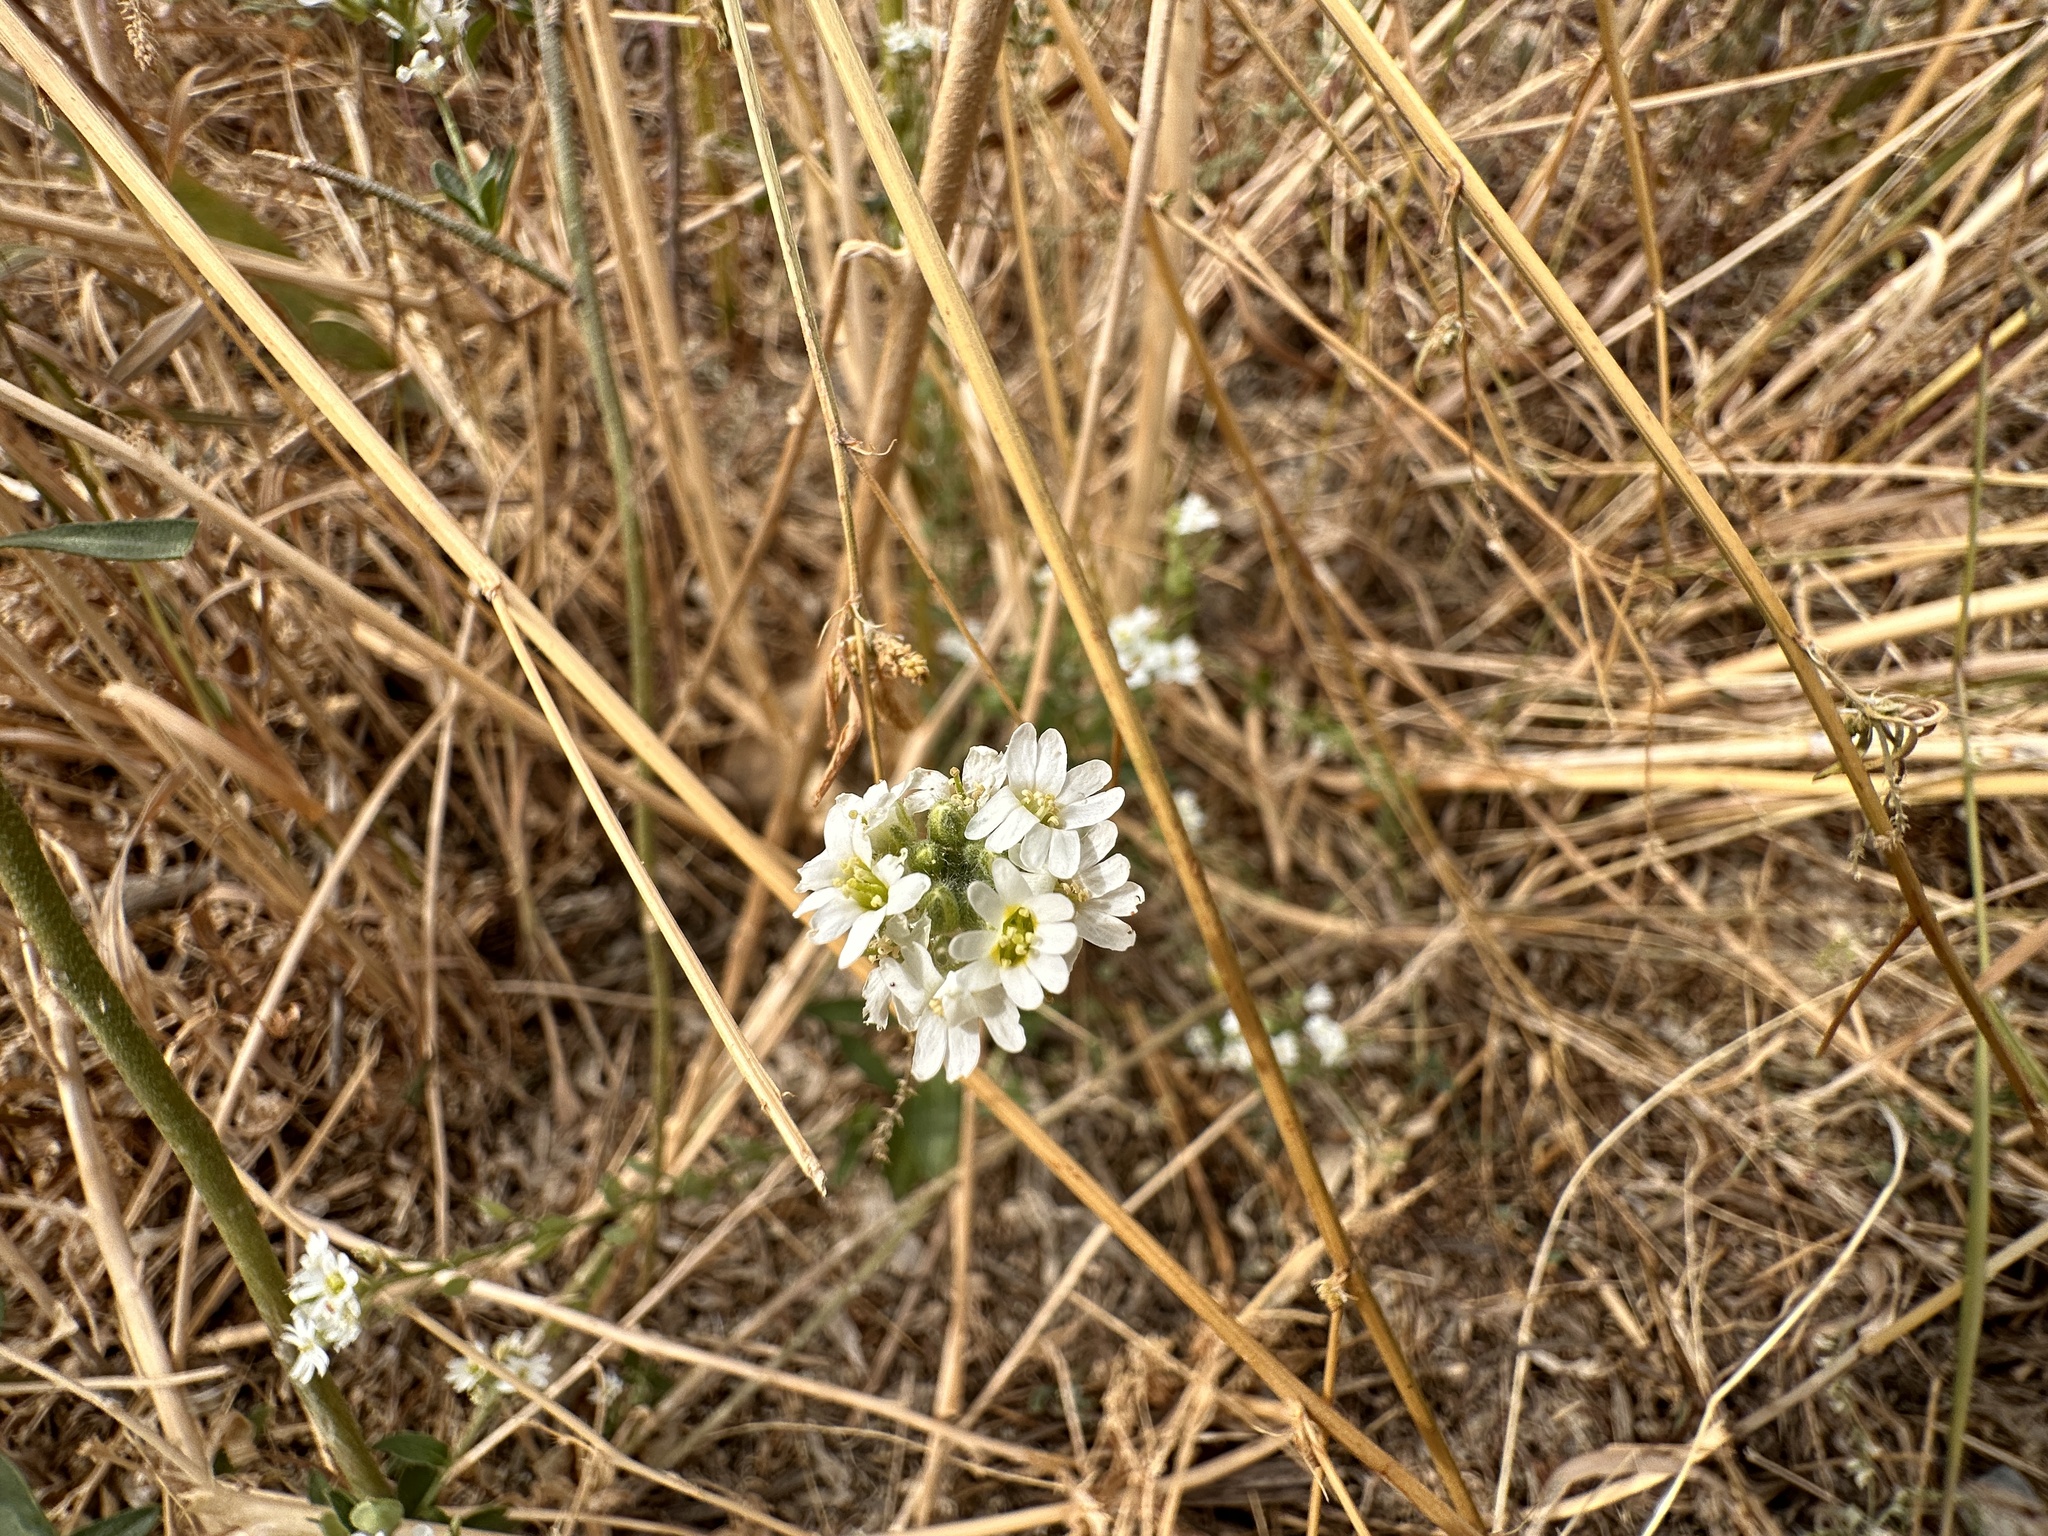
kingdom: Plantae
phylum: Tracheophyta
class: Magnoliopsida
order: Brassicales
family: Brassicaceae
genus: Berteroa
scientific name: Berteroa incana
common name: Hoary alison
